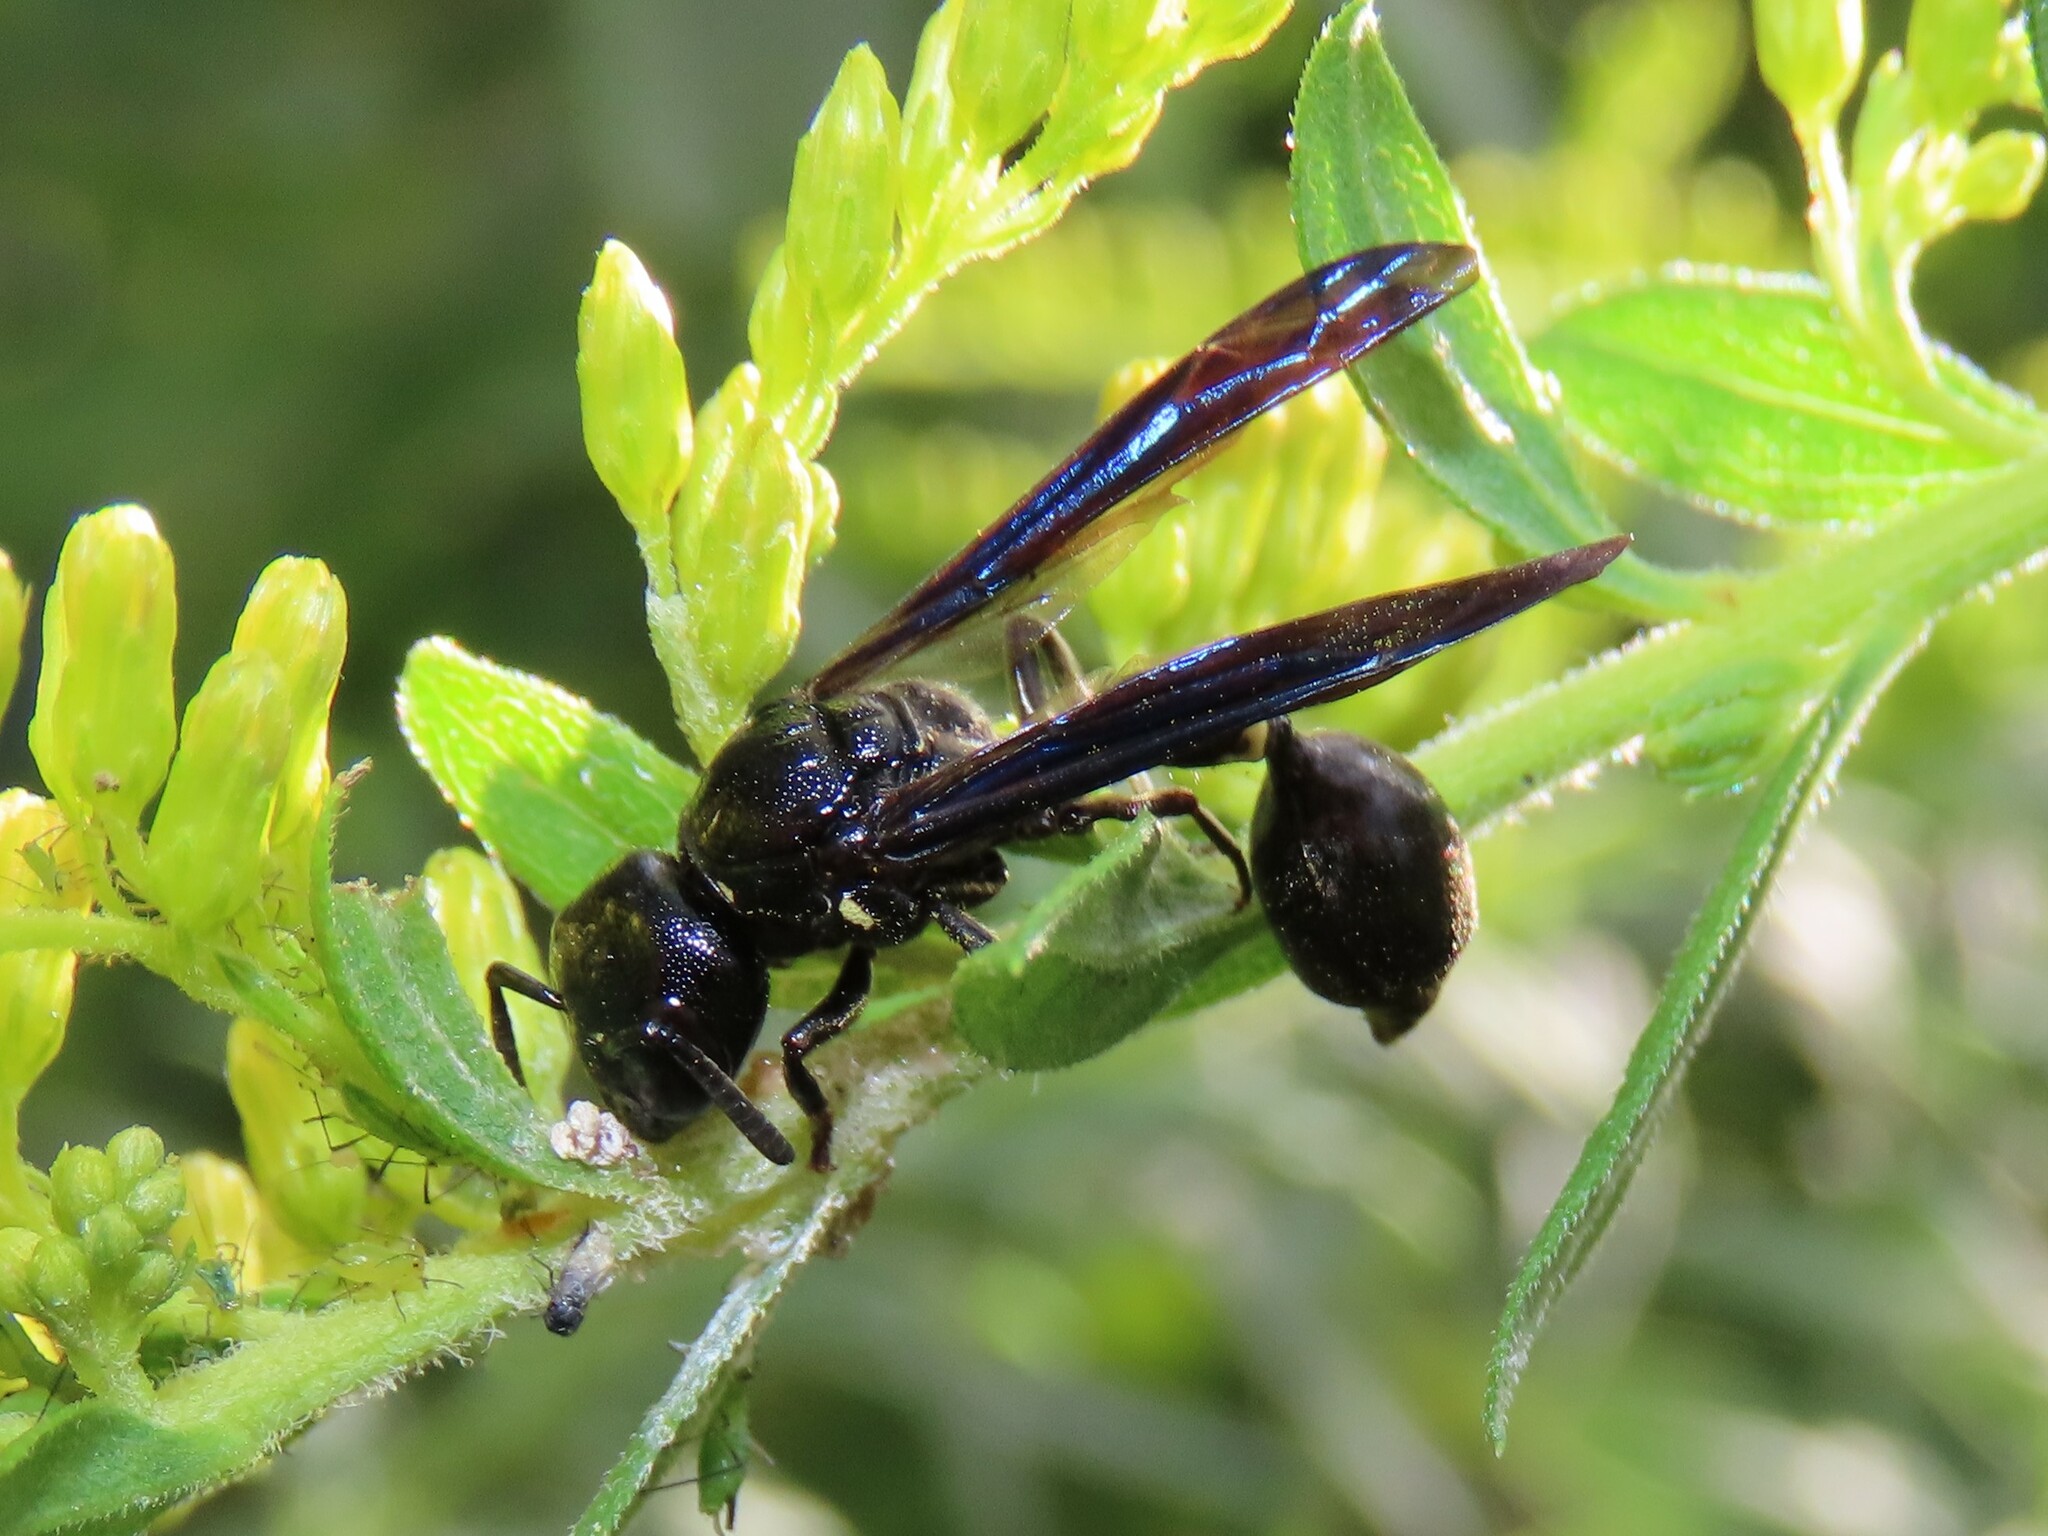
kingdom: Animalia
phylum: Arthropoda
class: Insecta
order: Hymenoptera
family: Eumenidae
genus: Zethus
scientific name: Zethus spinipes
